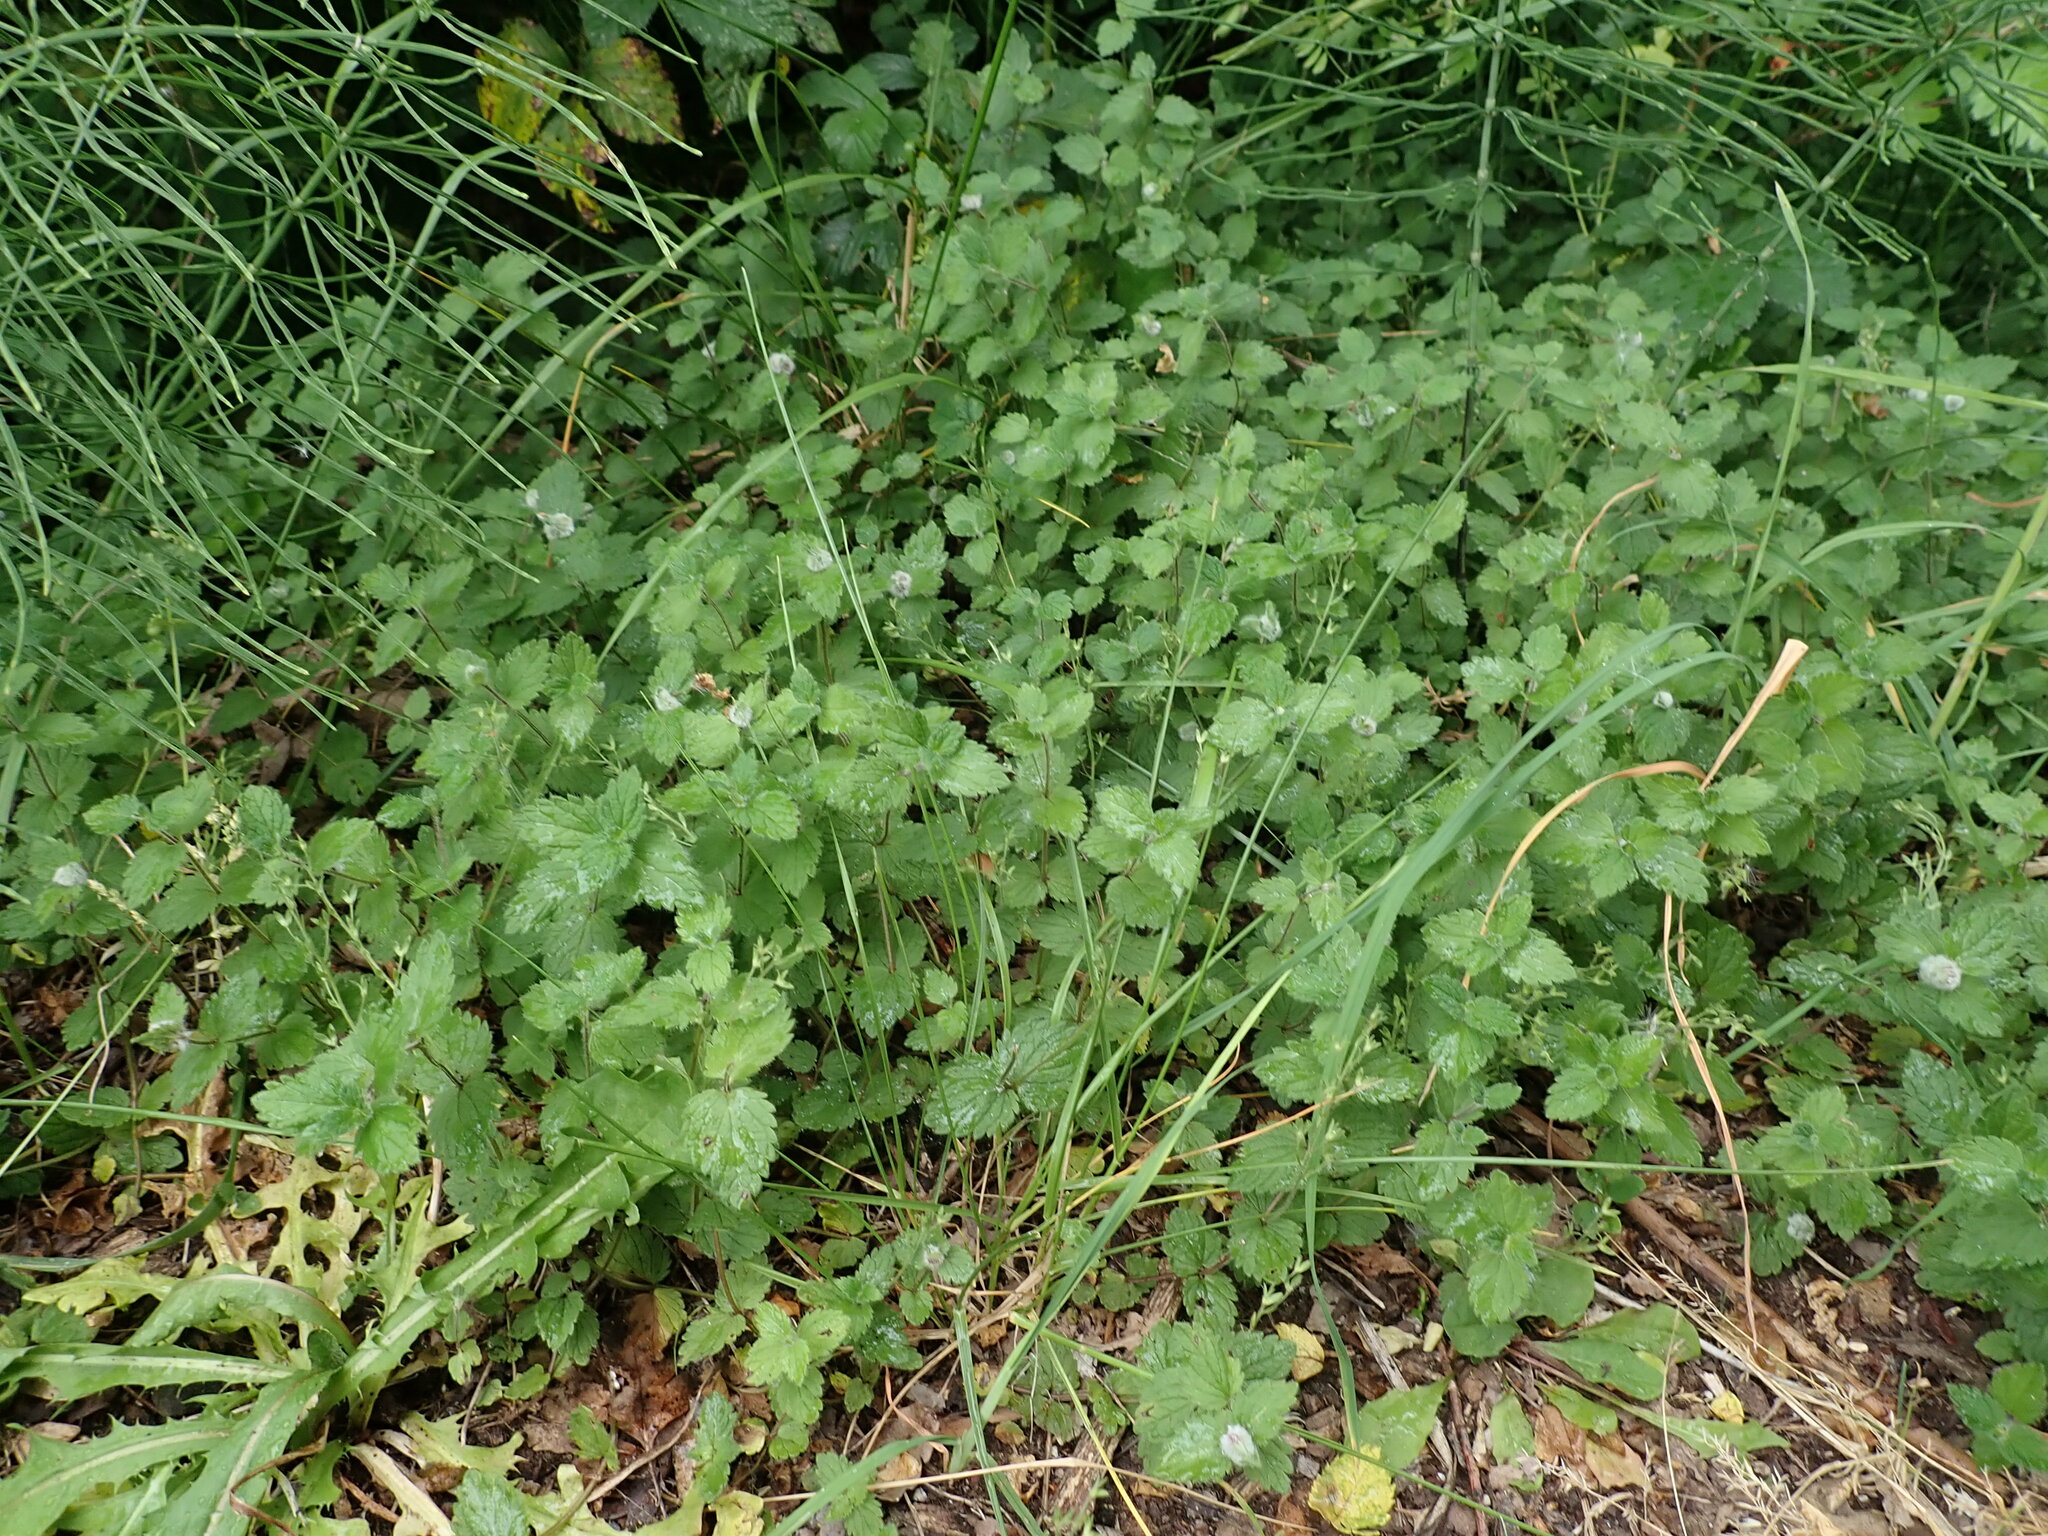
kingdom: Plantae
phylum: Tracheophyta
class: Magnoliopsida
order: Lamiales
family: Plantaginaceae
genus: Veronica
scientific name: Veronica chamaedrys
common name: Germander speedwell
